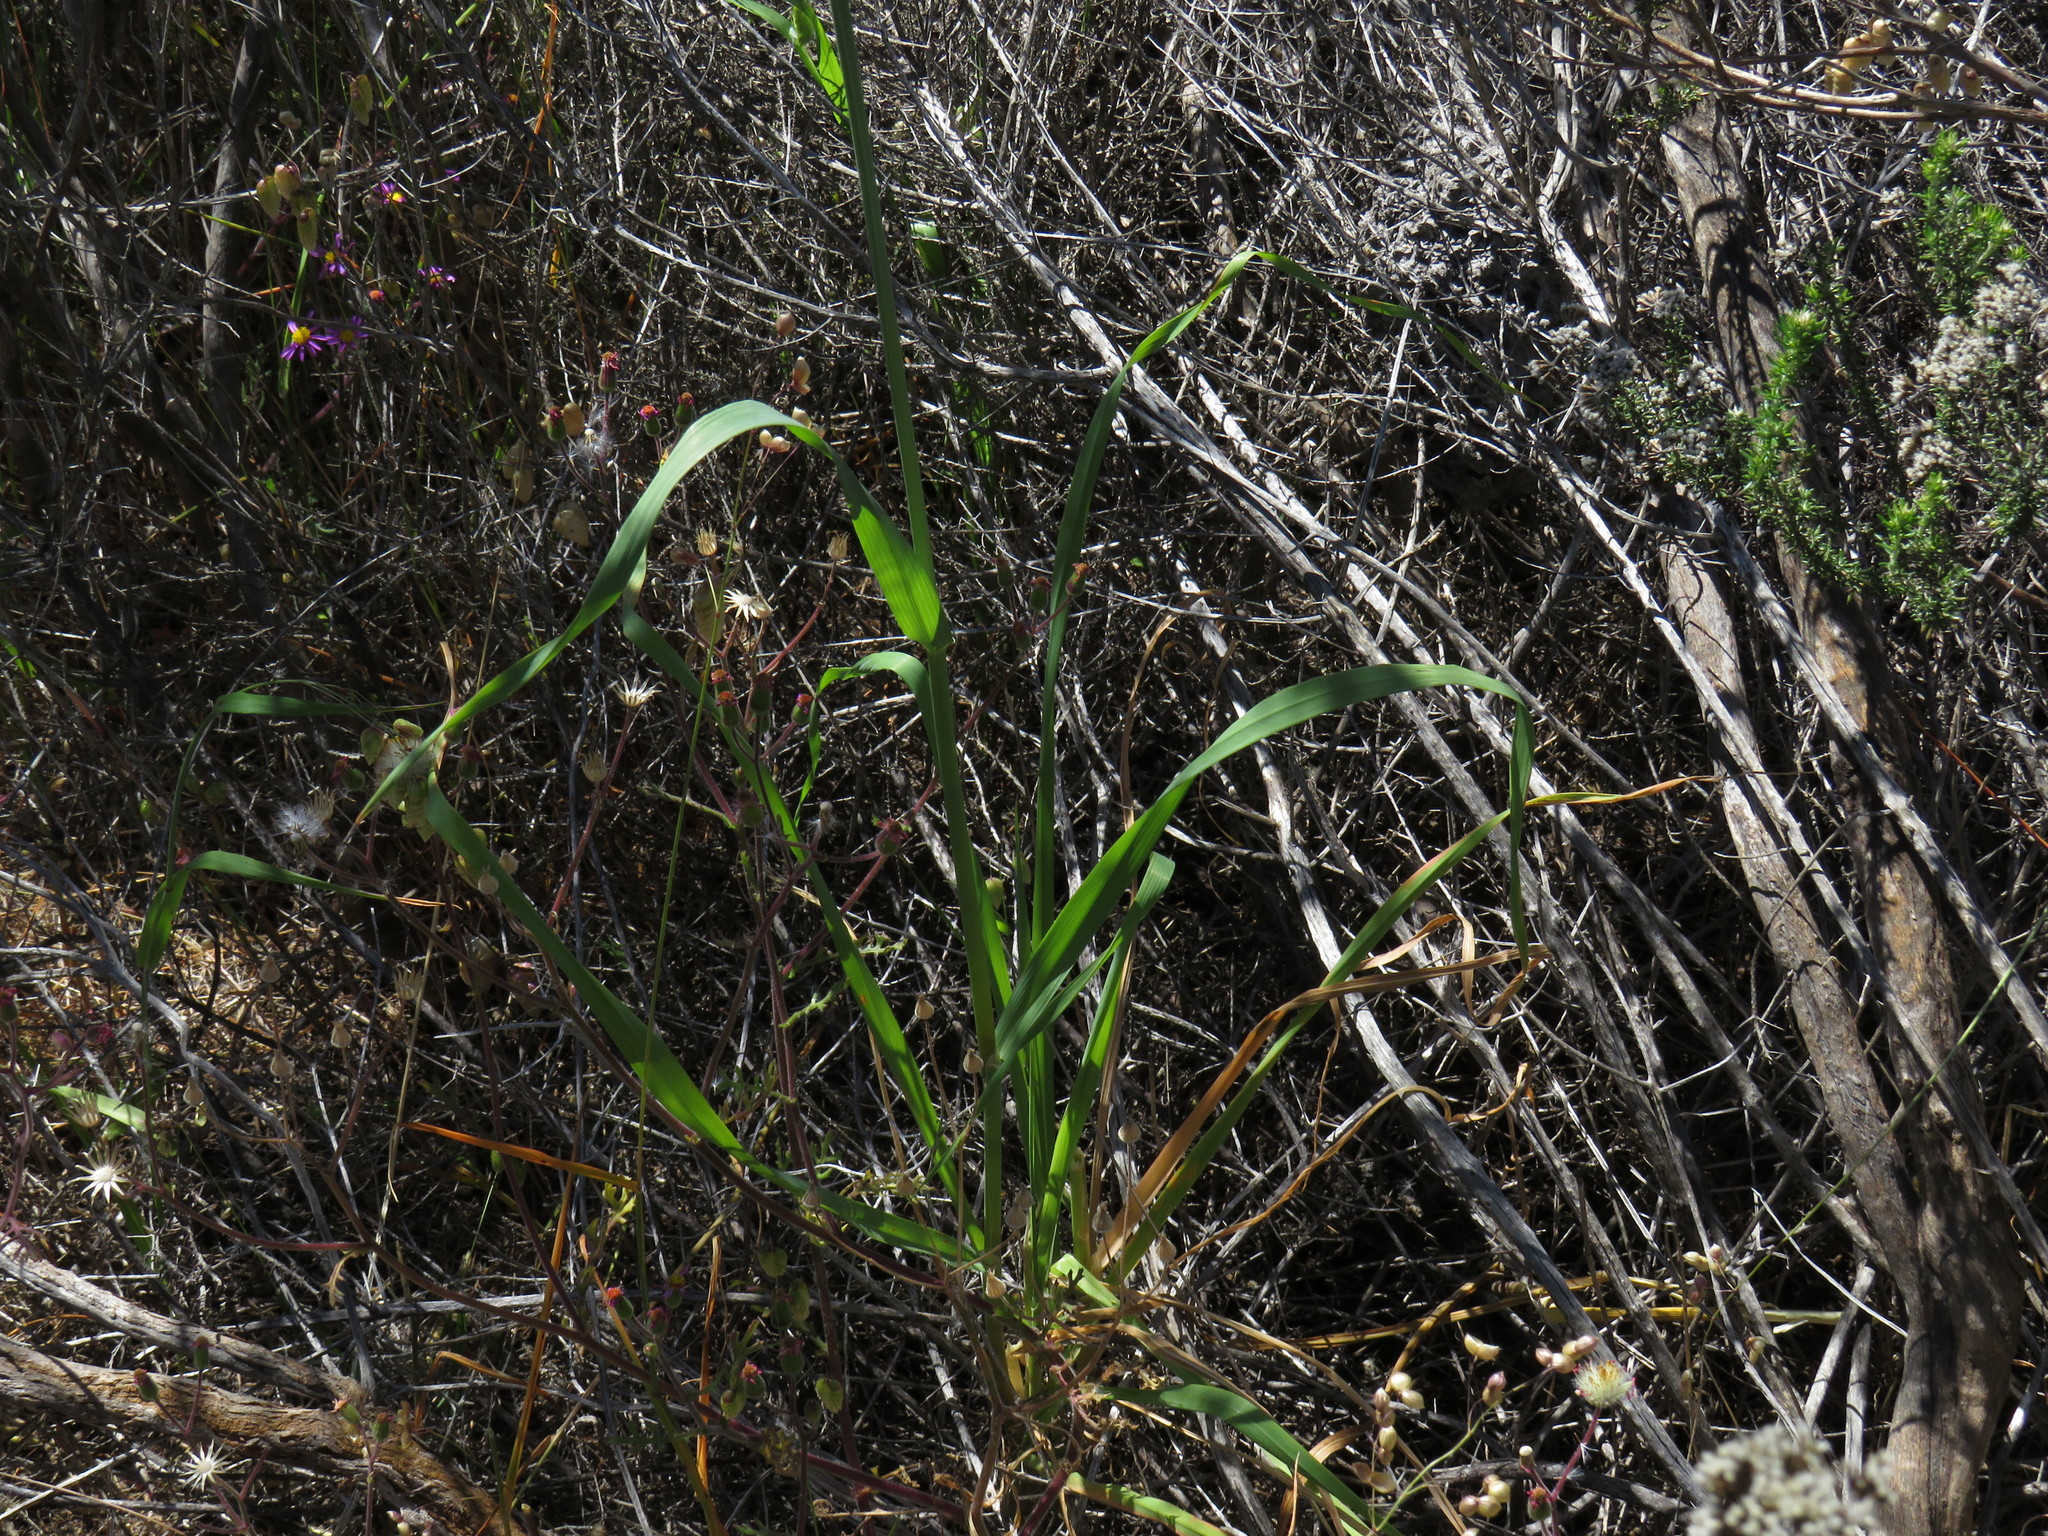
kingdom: Plantae
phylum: Tracheophyta
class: Liliopsida
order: Poales
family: Poaceae
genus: Avena
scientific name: Avena fatua
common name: Wild oat
